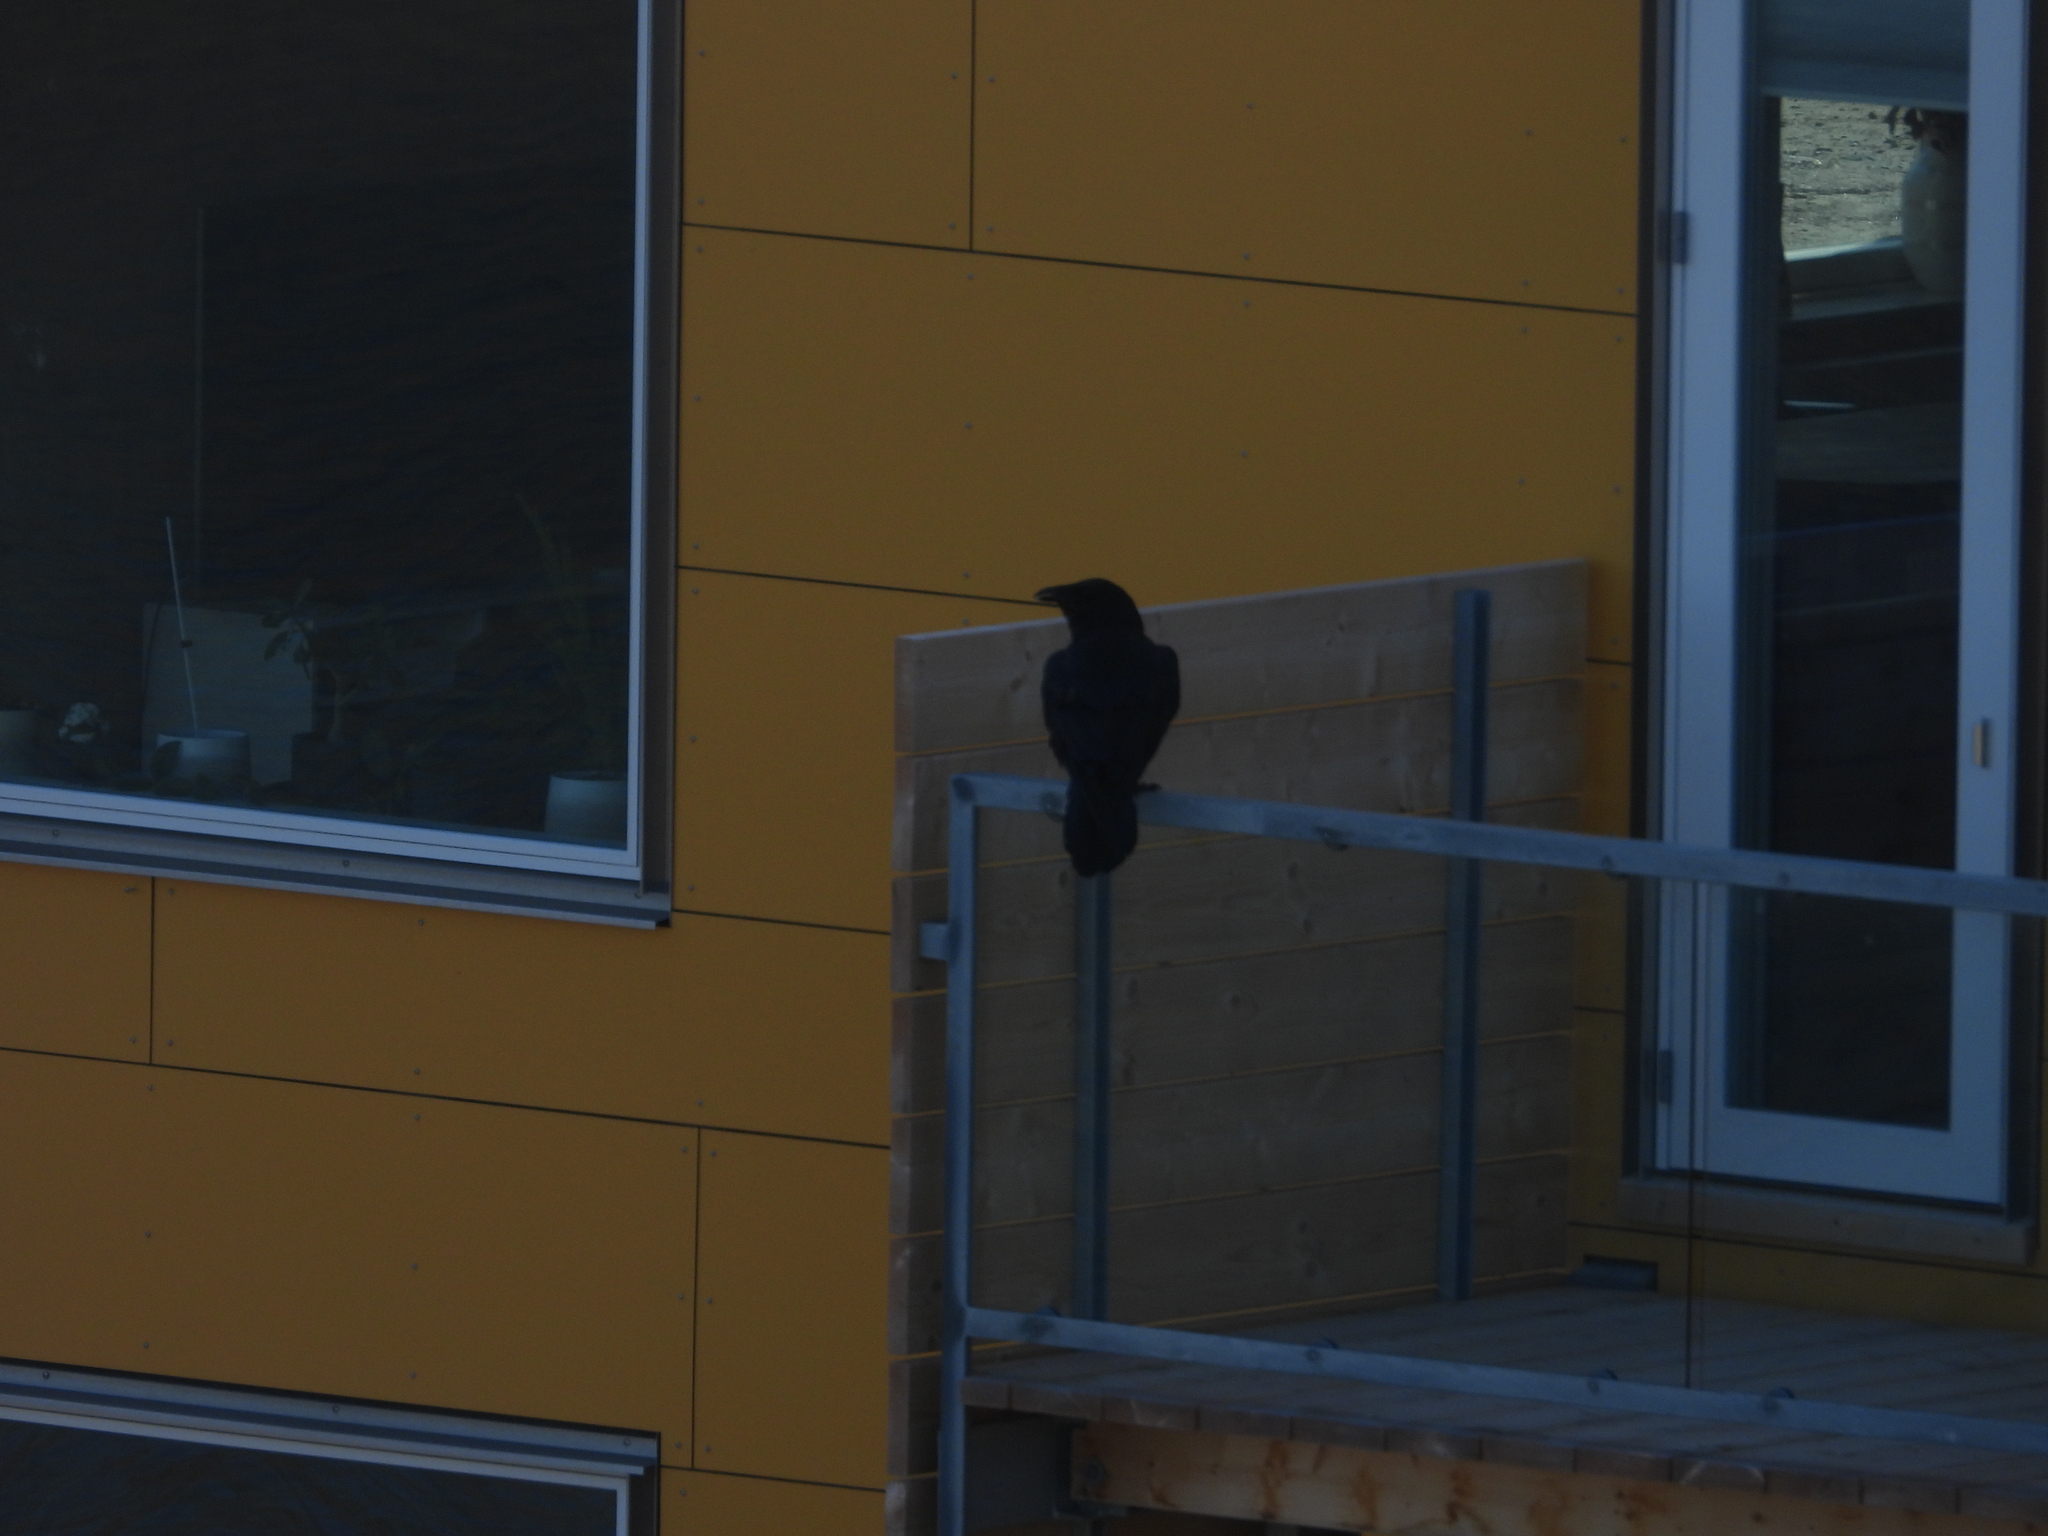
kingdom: Animalia
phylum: Chordata
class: Aves
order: Passeriformes
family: Corvidae
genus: Corvus
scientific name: Corvus corax
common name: Common raven
